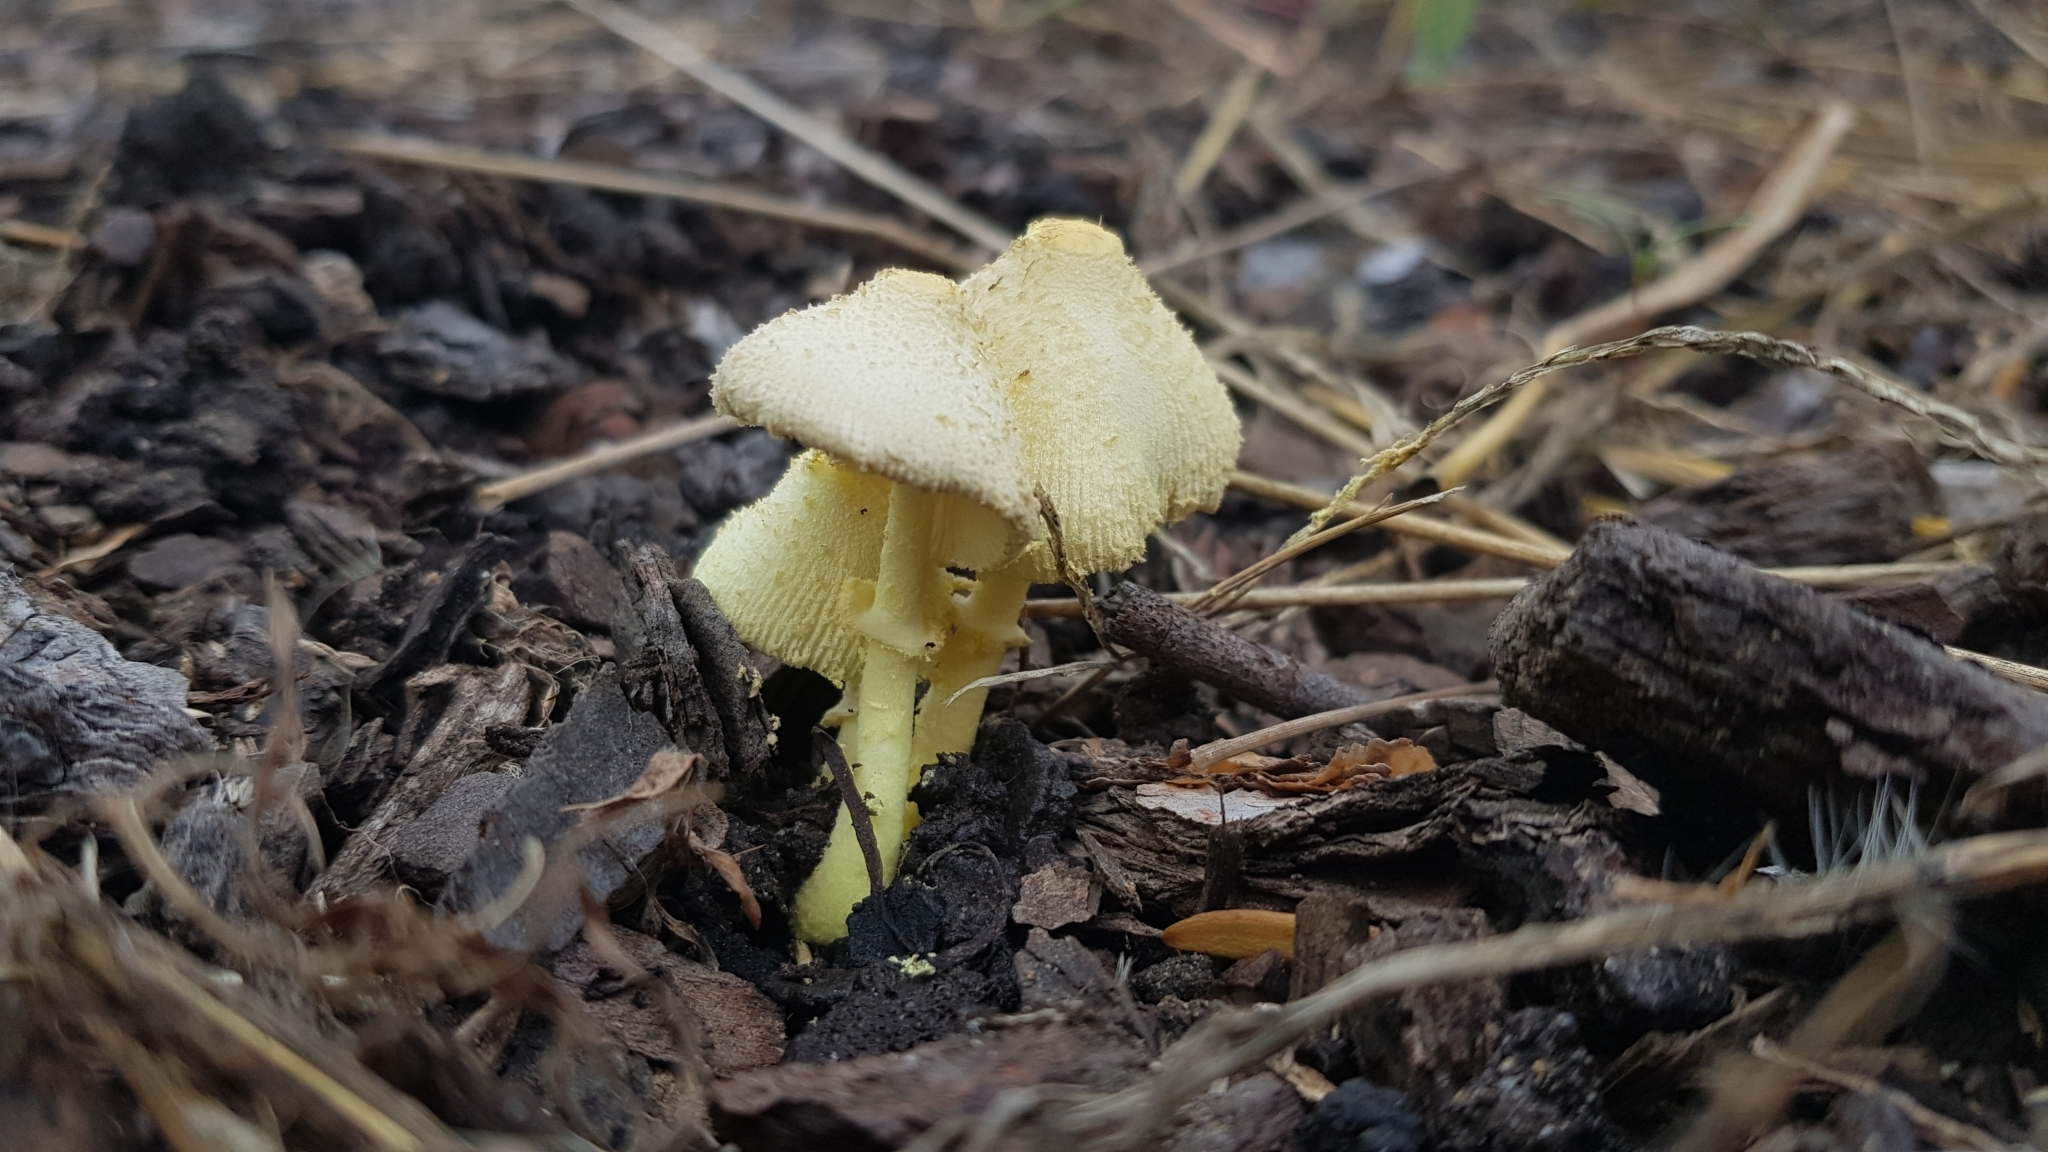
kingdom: Fungi
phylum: Basidiomycota
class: Agaricomycetes
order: Agaricales
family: Agaricaceae
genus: Leucocoprinus
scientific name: Leucocoprinus birnbaumii
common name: Plantpot dapperling
